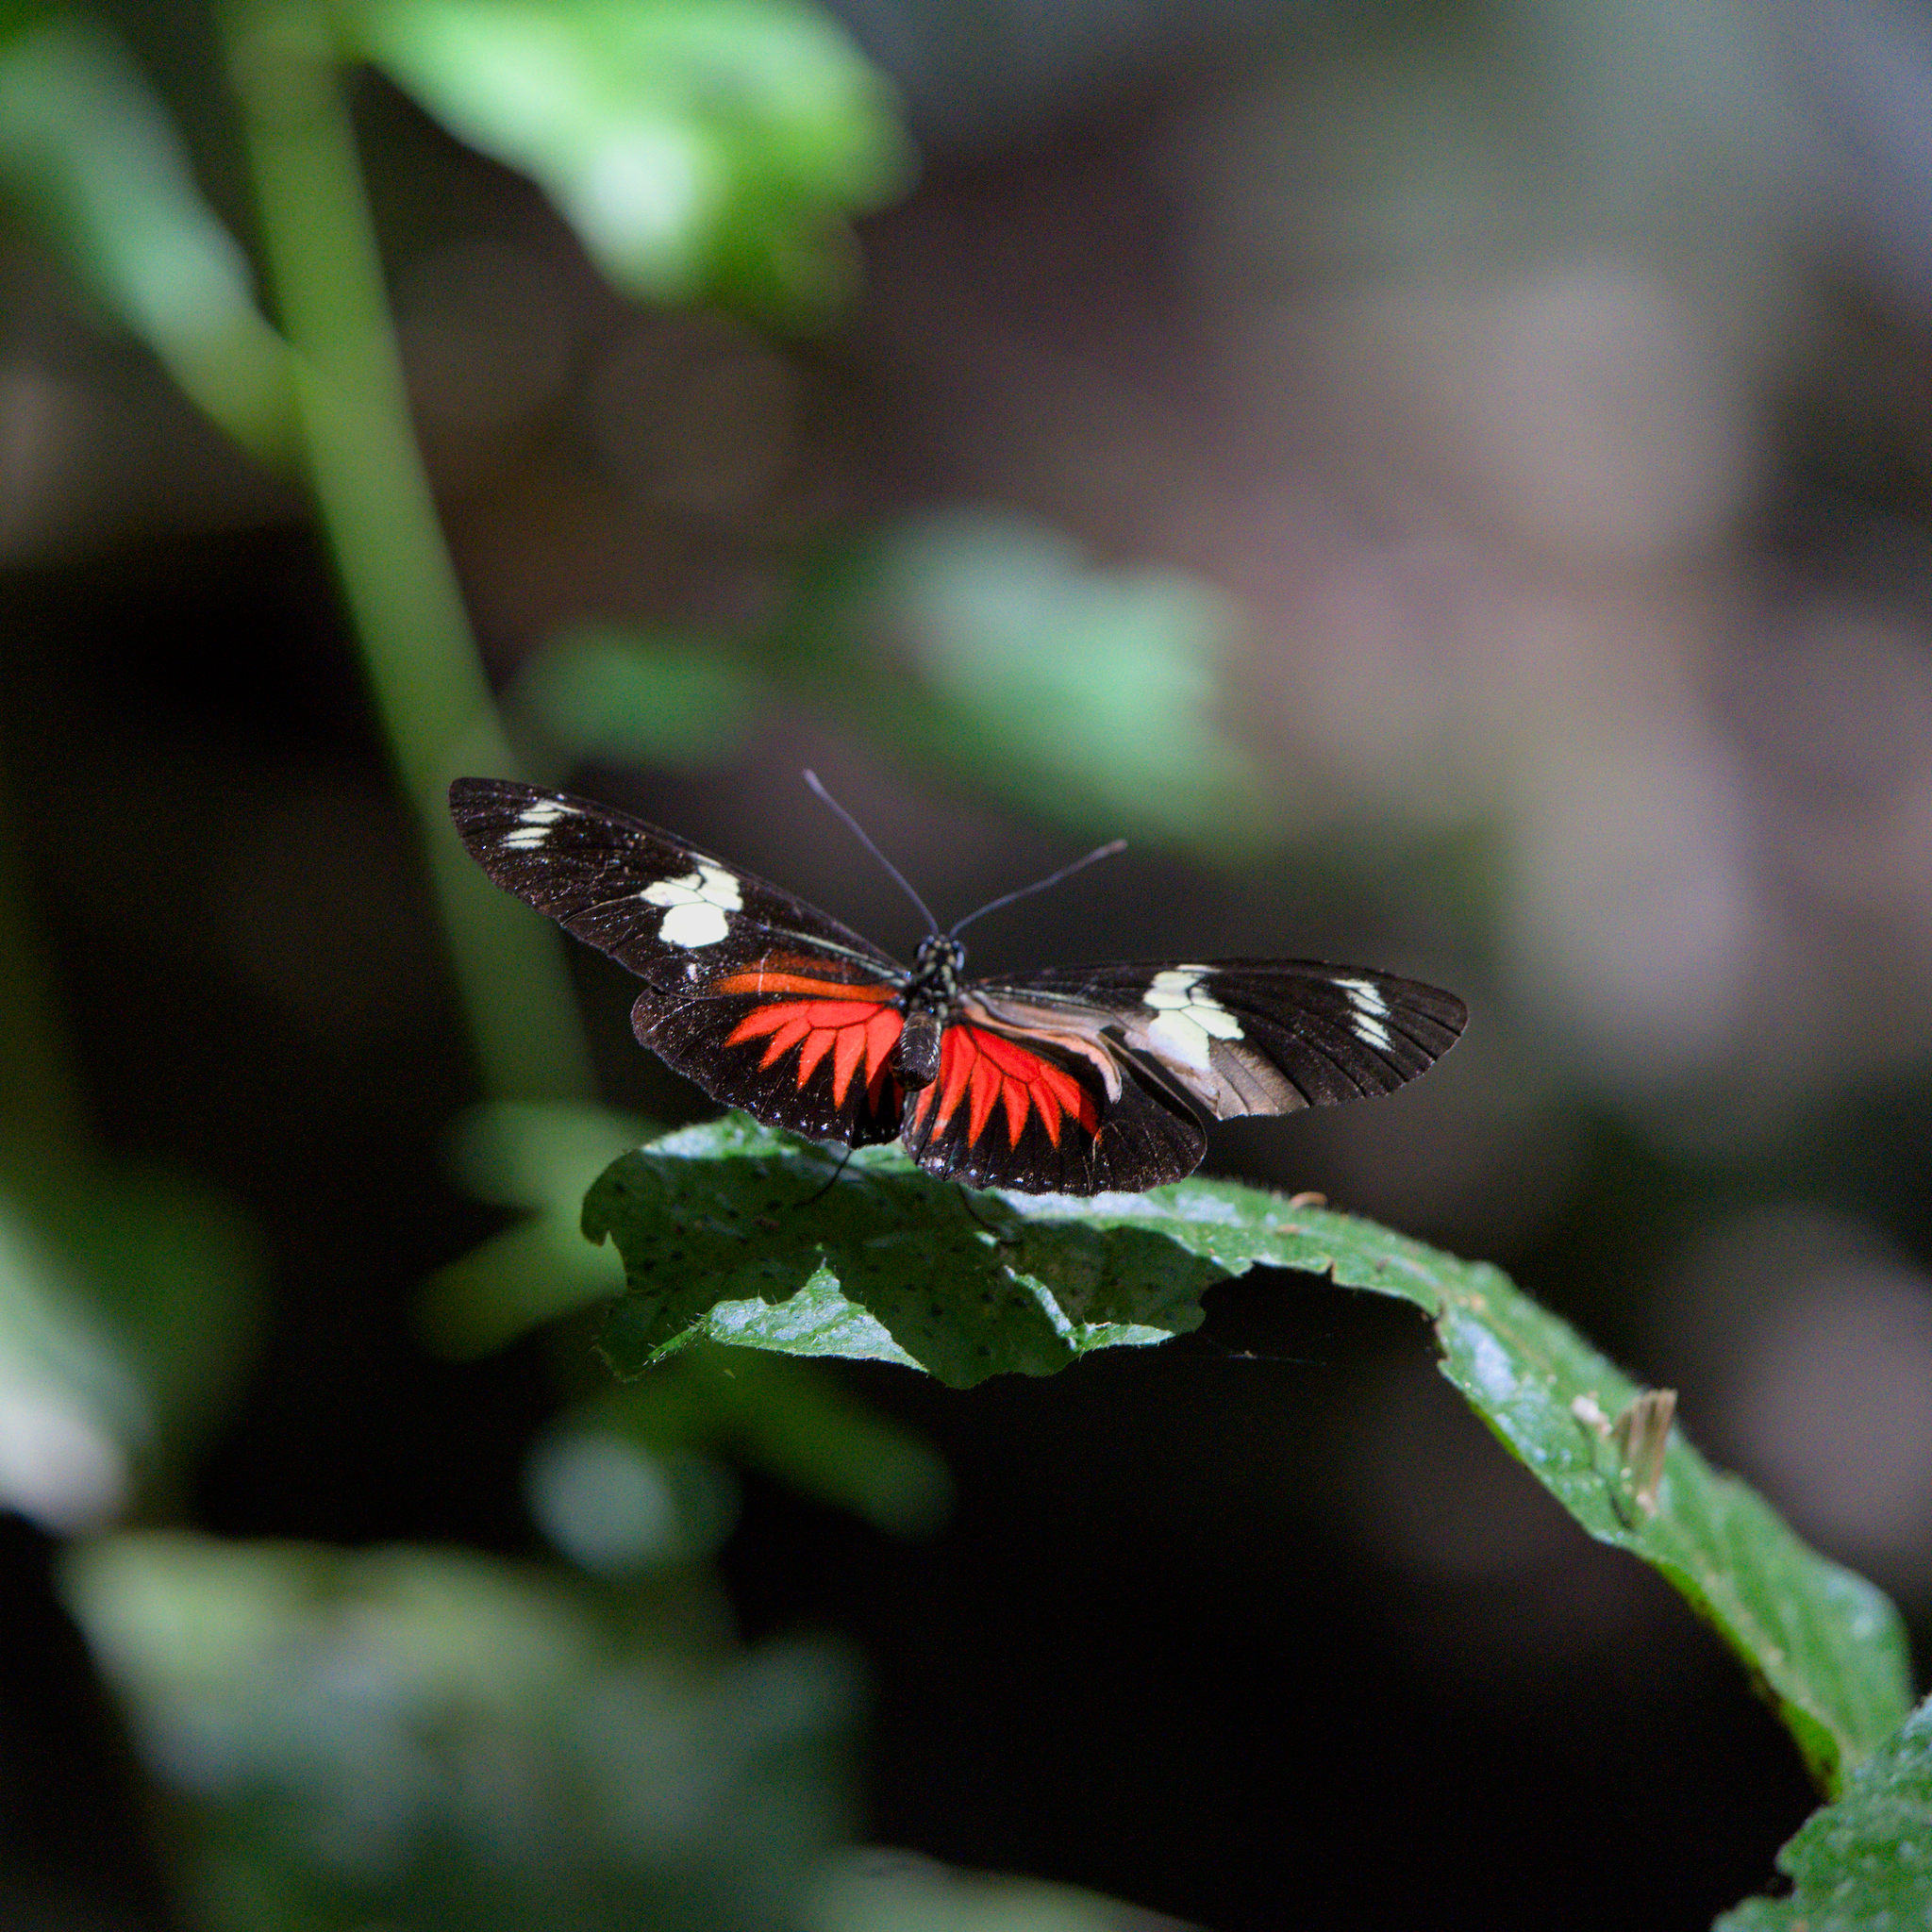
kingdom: Animalia
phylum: Arthropoda
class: Insecta
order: Lepidoptera
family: Nymphalidae
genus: Heliconius
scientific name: Heliconius doris
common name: Doris longwing
